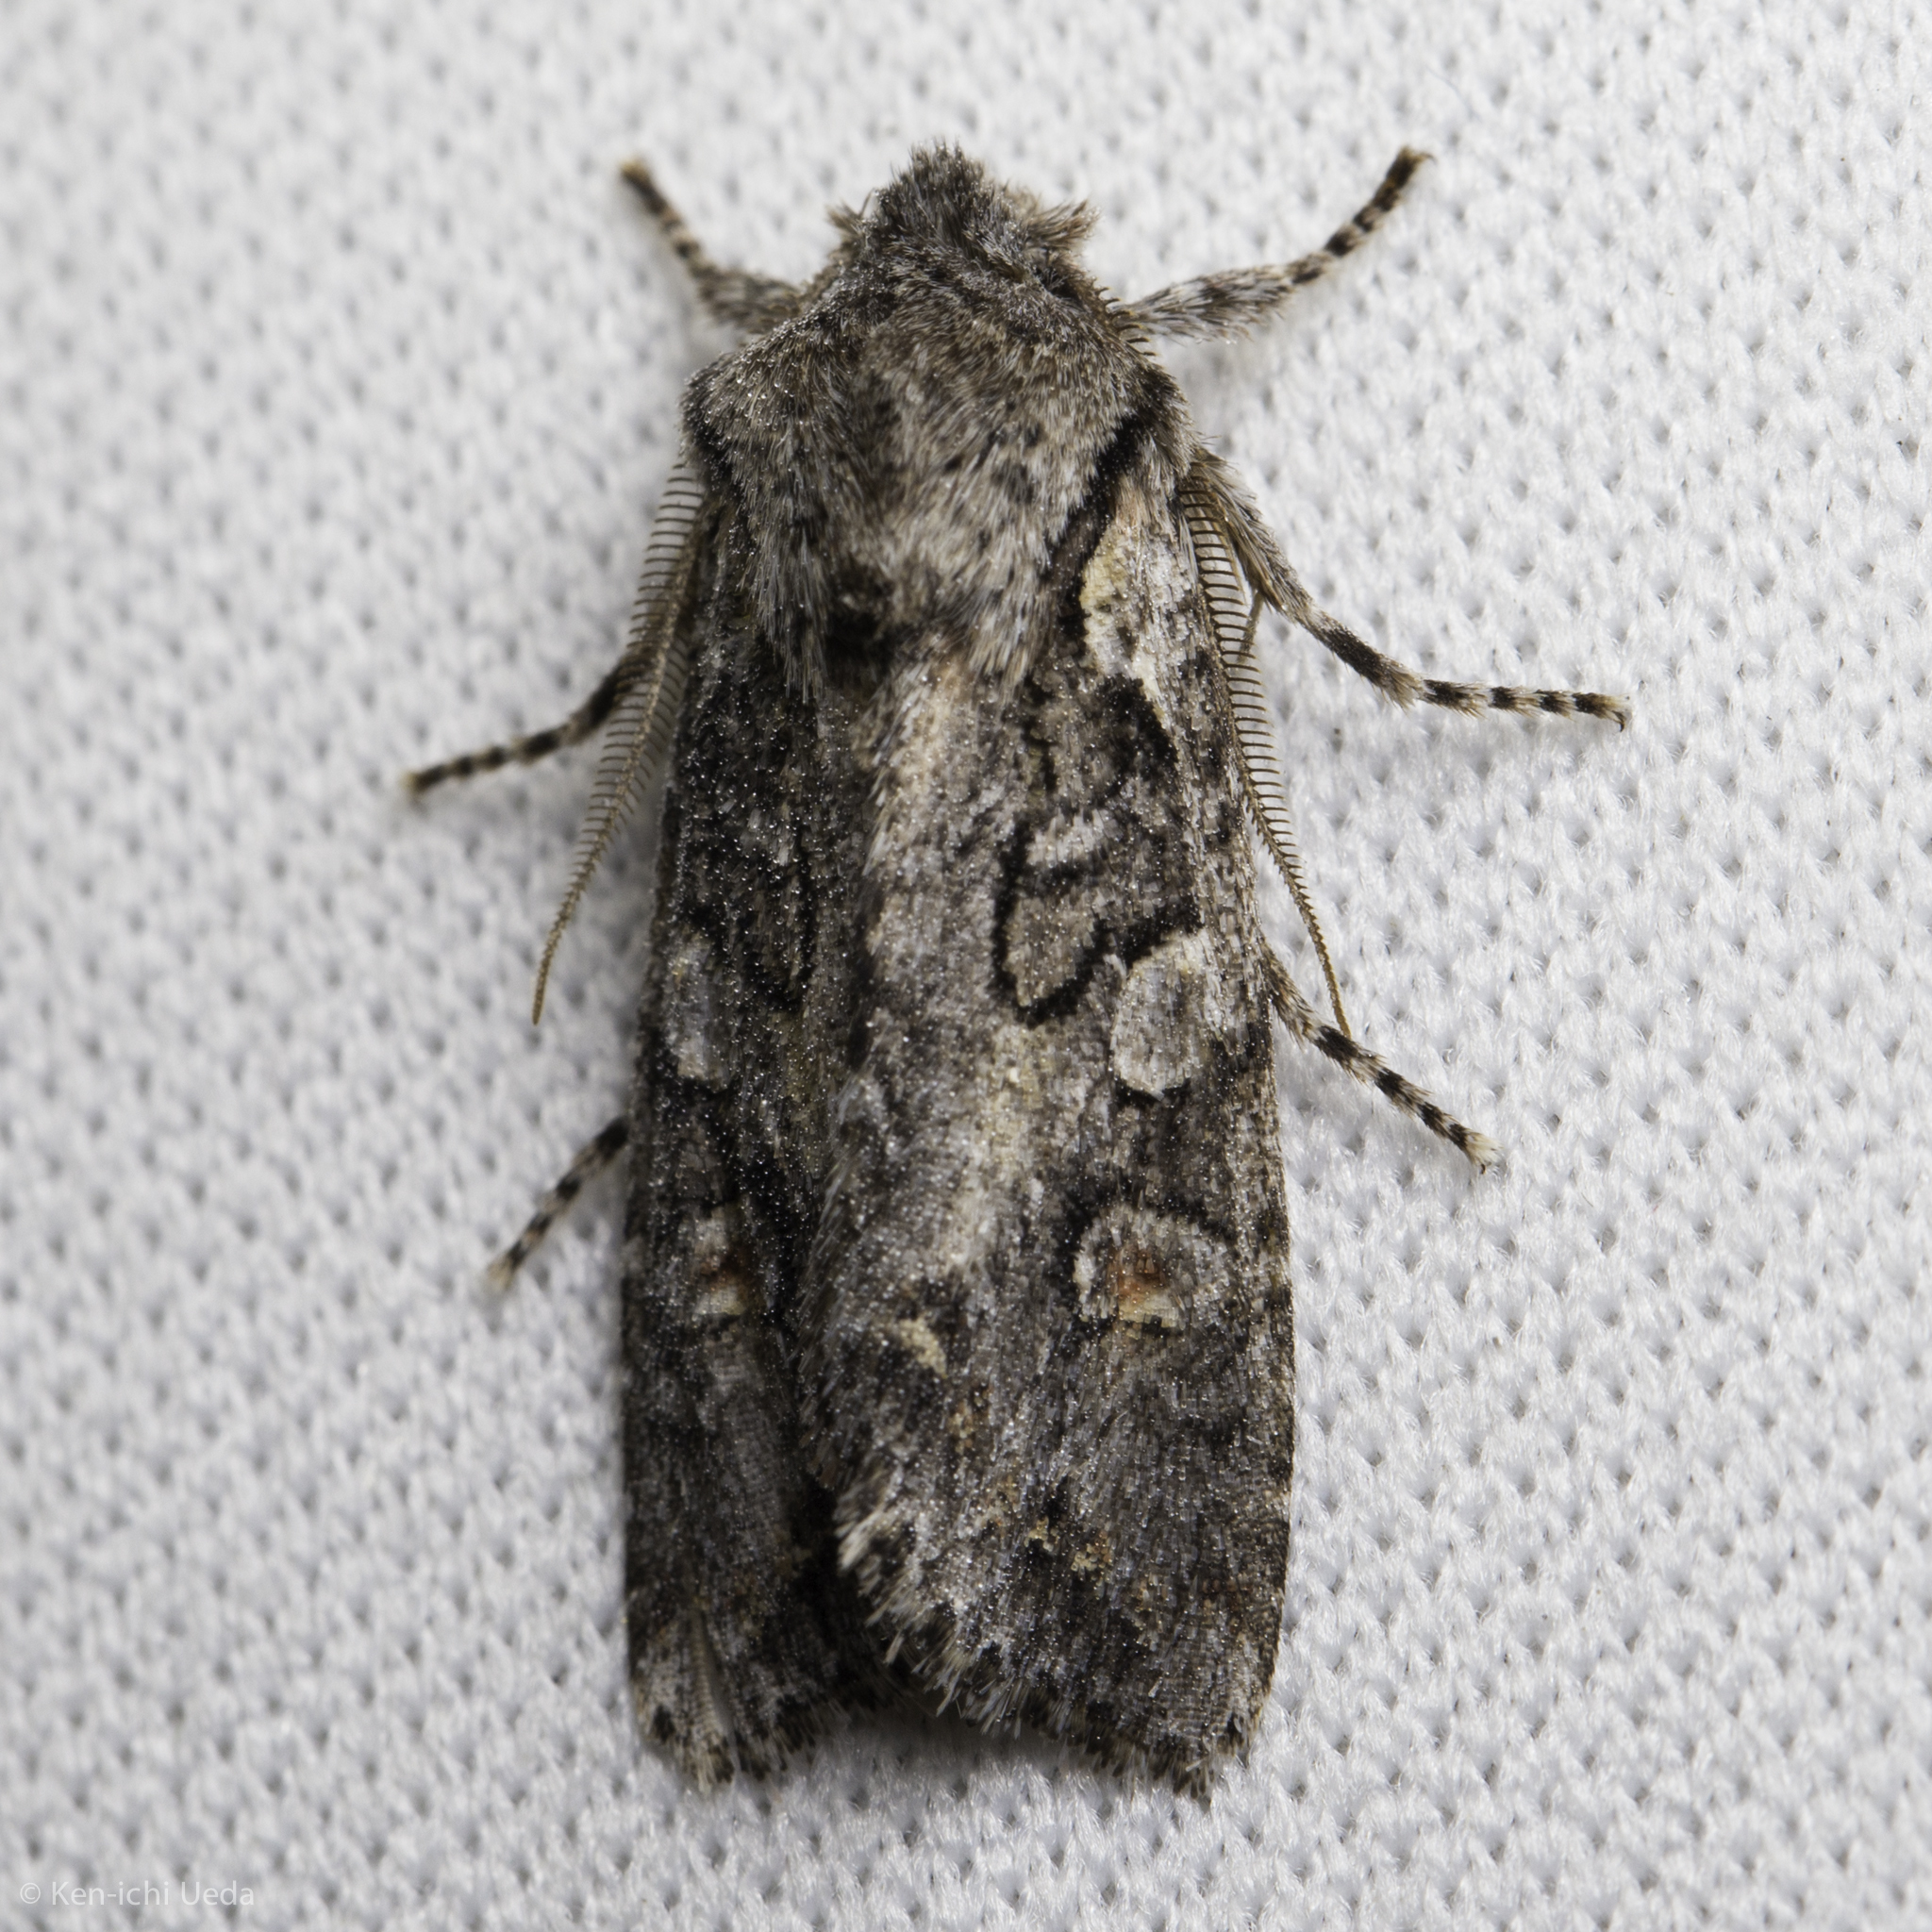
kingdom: Animalia
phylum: Arthropoda
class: Insecta
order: Lepidoptera
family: Noctuidae
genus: Egira
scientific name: Egira hiemalis
